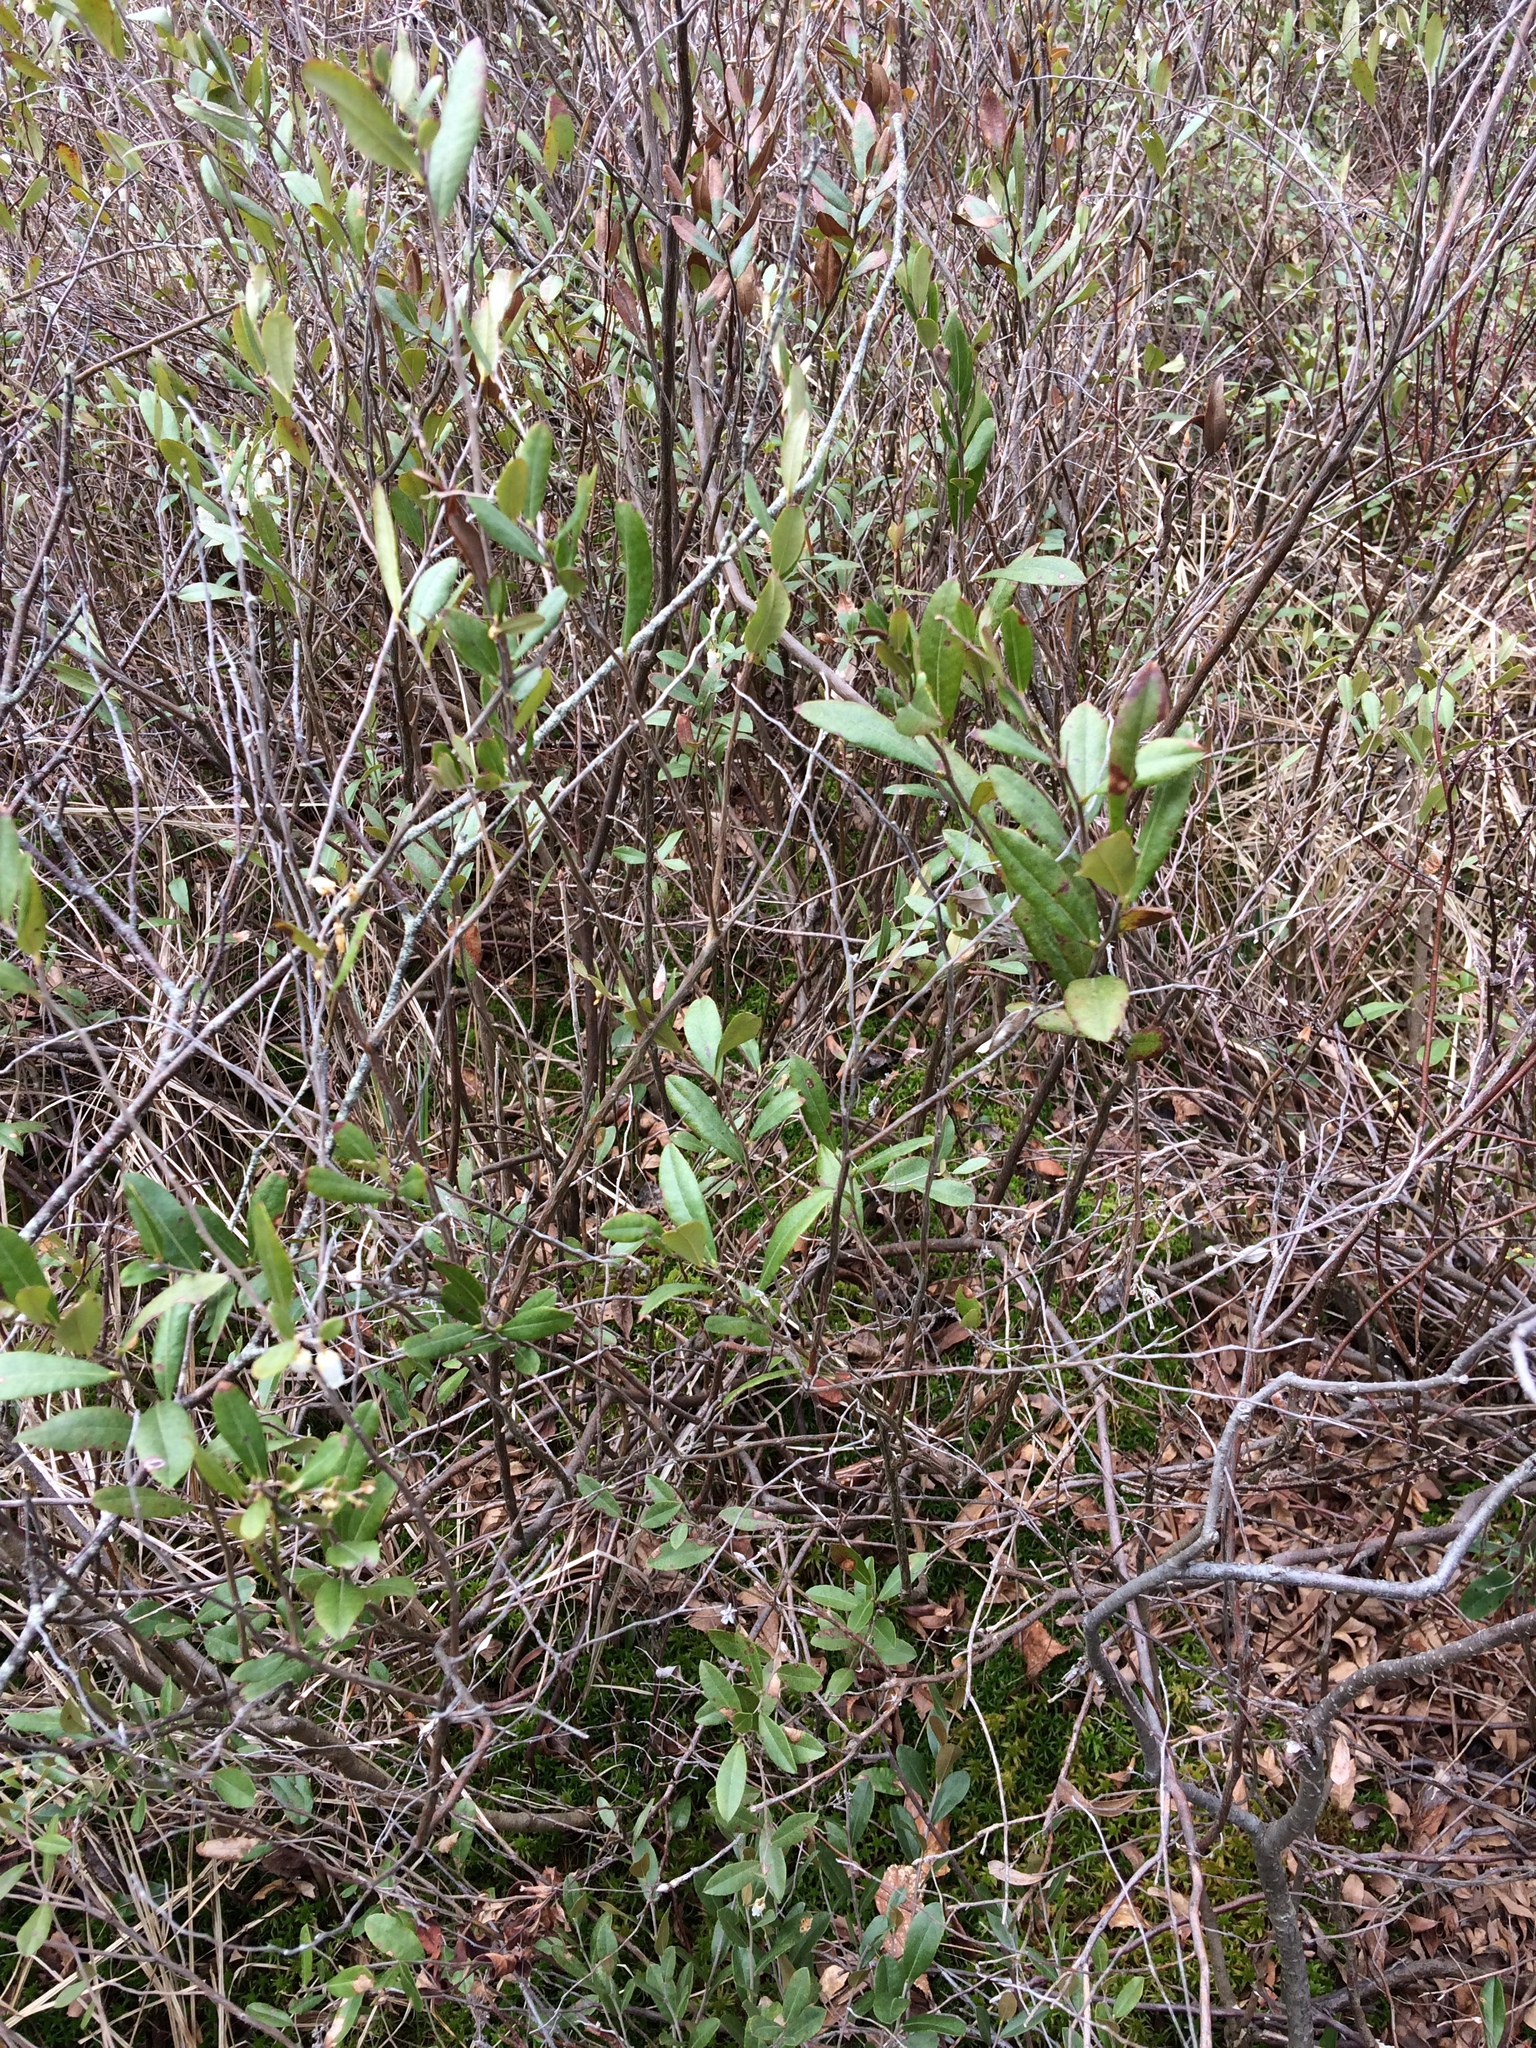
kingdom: Plantae
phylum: Tracheophyta
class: Magnoliopsida
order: Ericales
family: Ericaceae
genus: Chamaedaphne
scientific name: Chamaedaphne calyculata
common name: Leatherleaf
